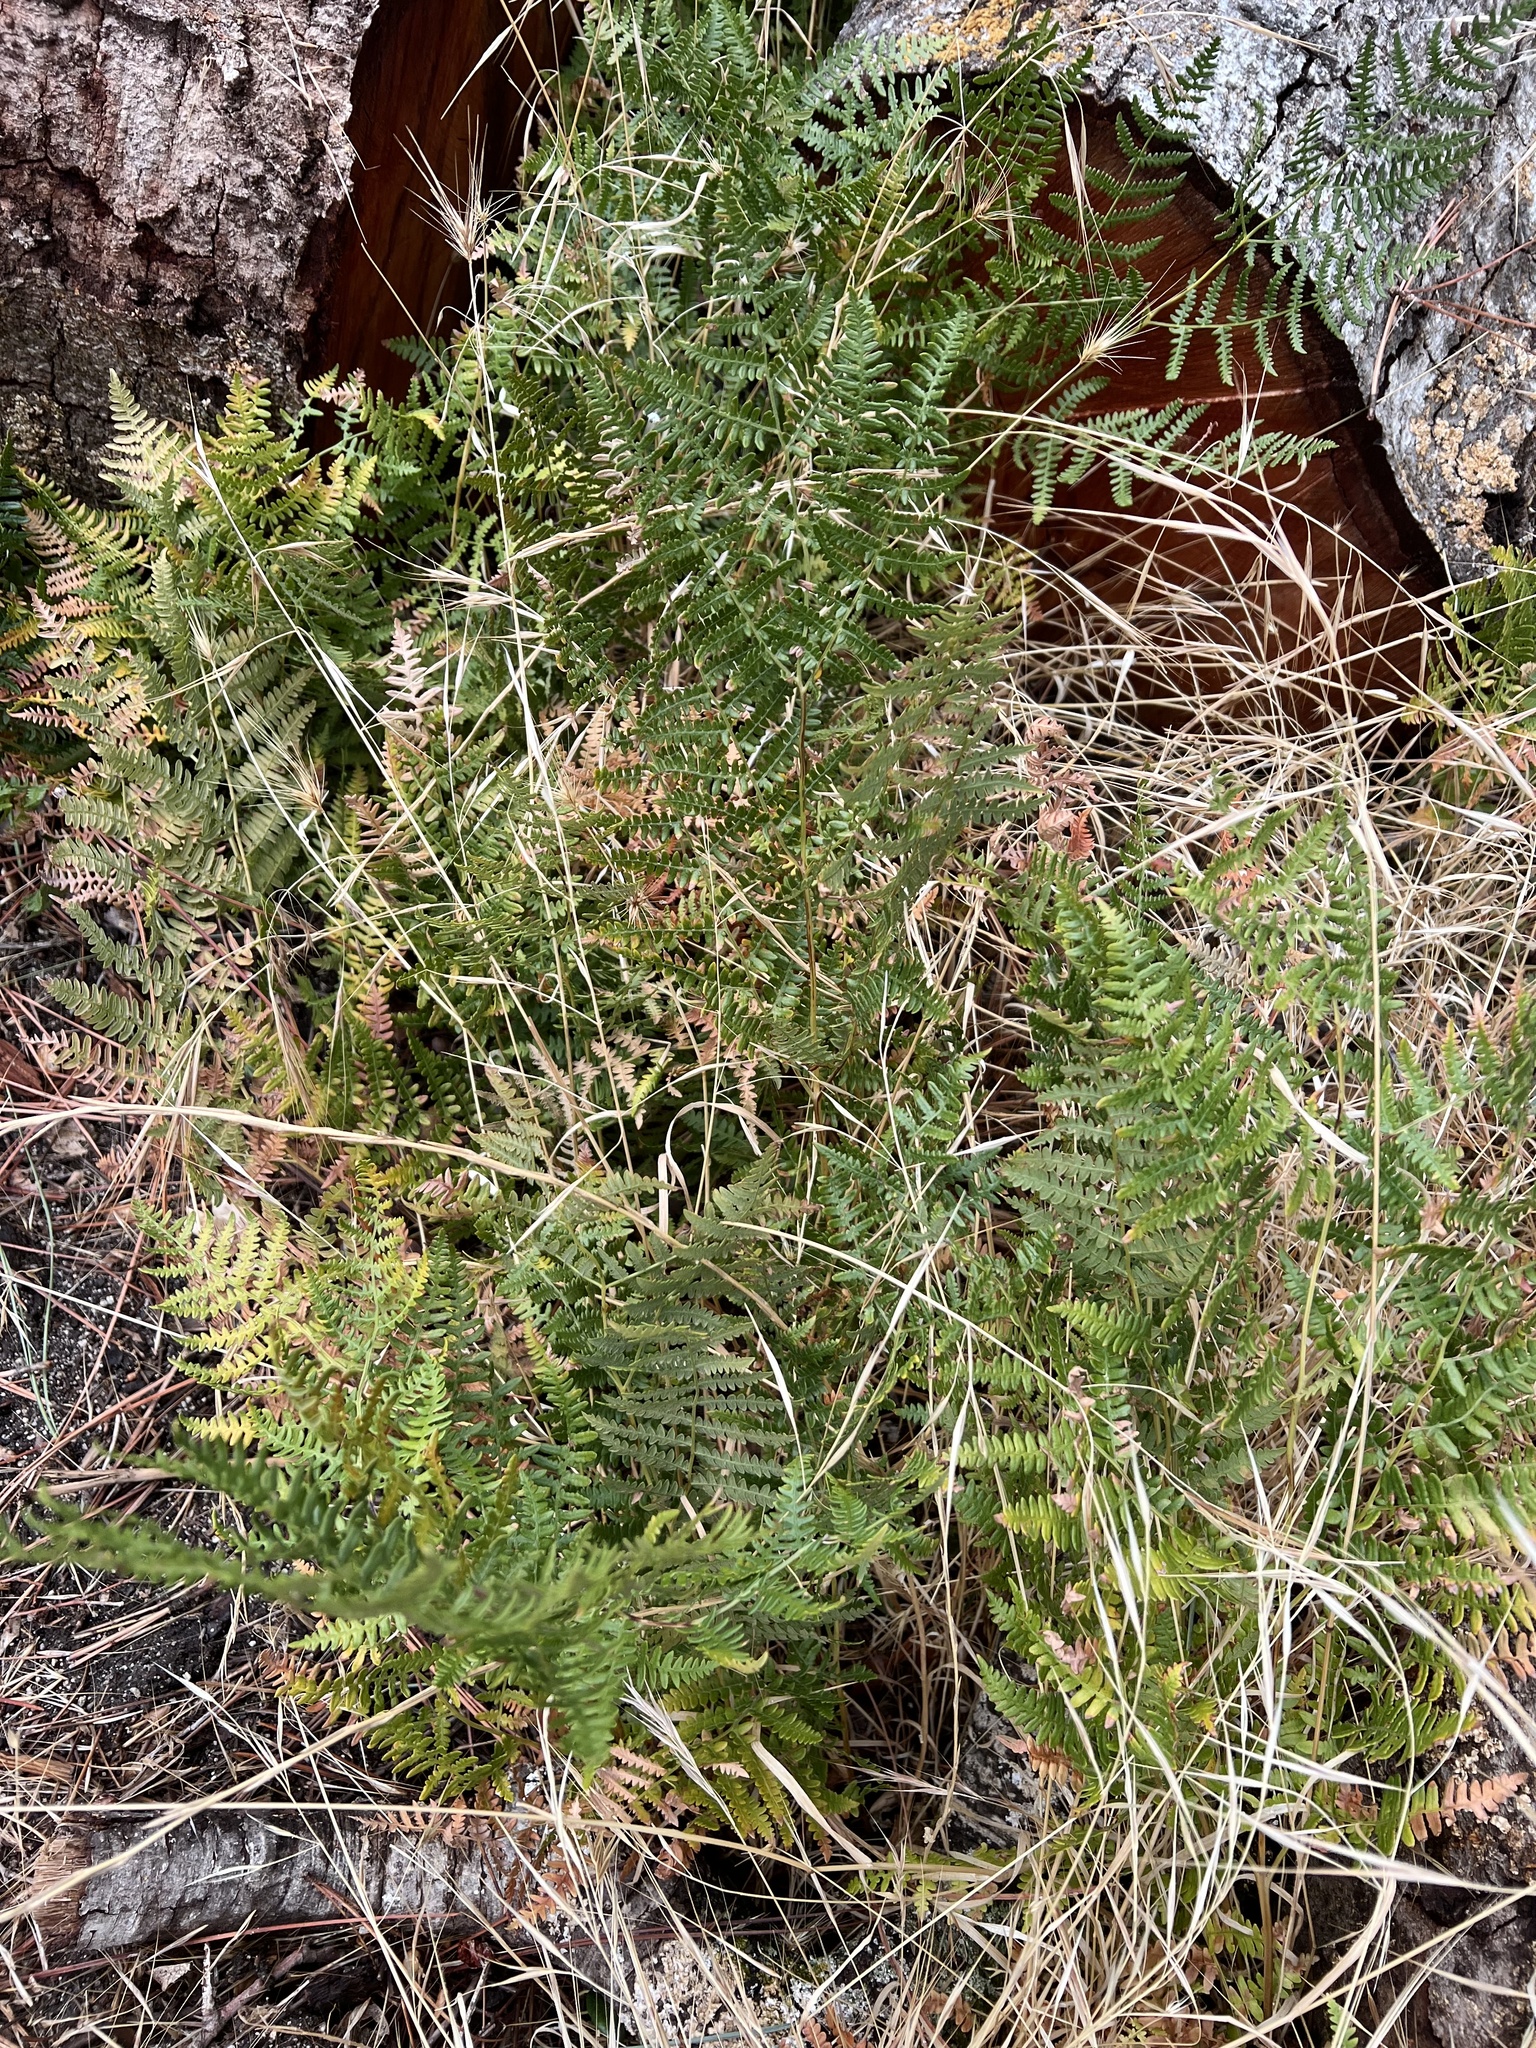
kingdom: Plantae
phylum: Tracheophyta
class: Polypodiopsida
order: Polypodiales
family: Dennstaedtiaceae
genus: Pteridium
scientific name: Pteridium aquilinum
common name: Bracken
